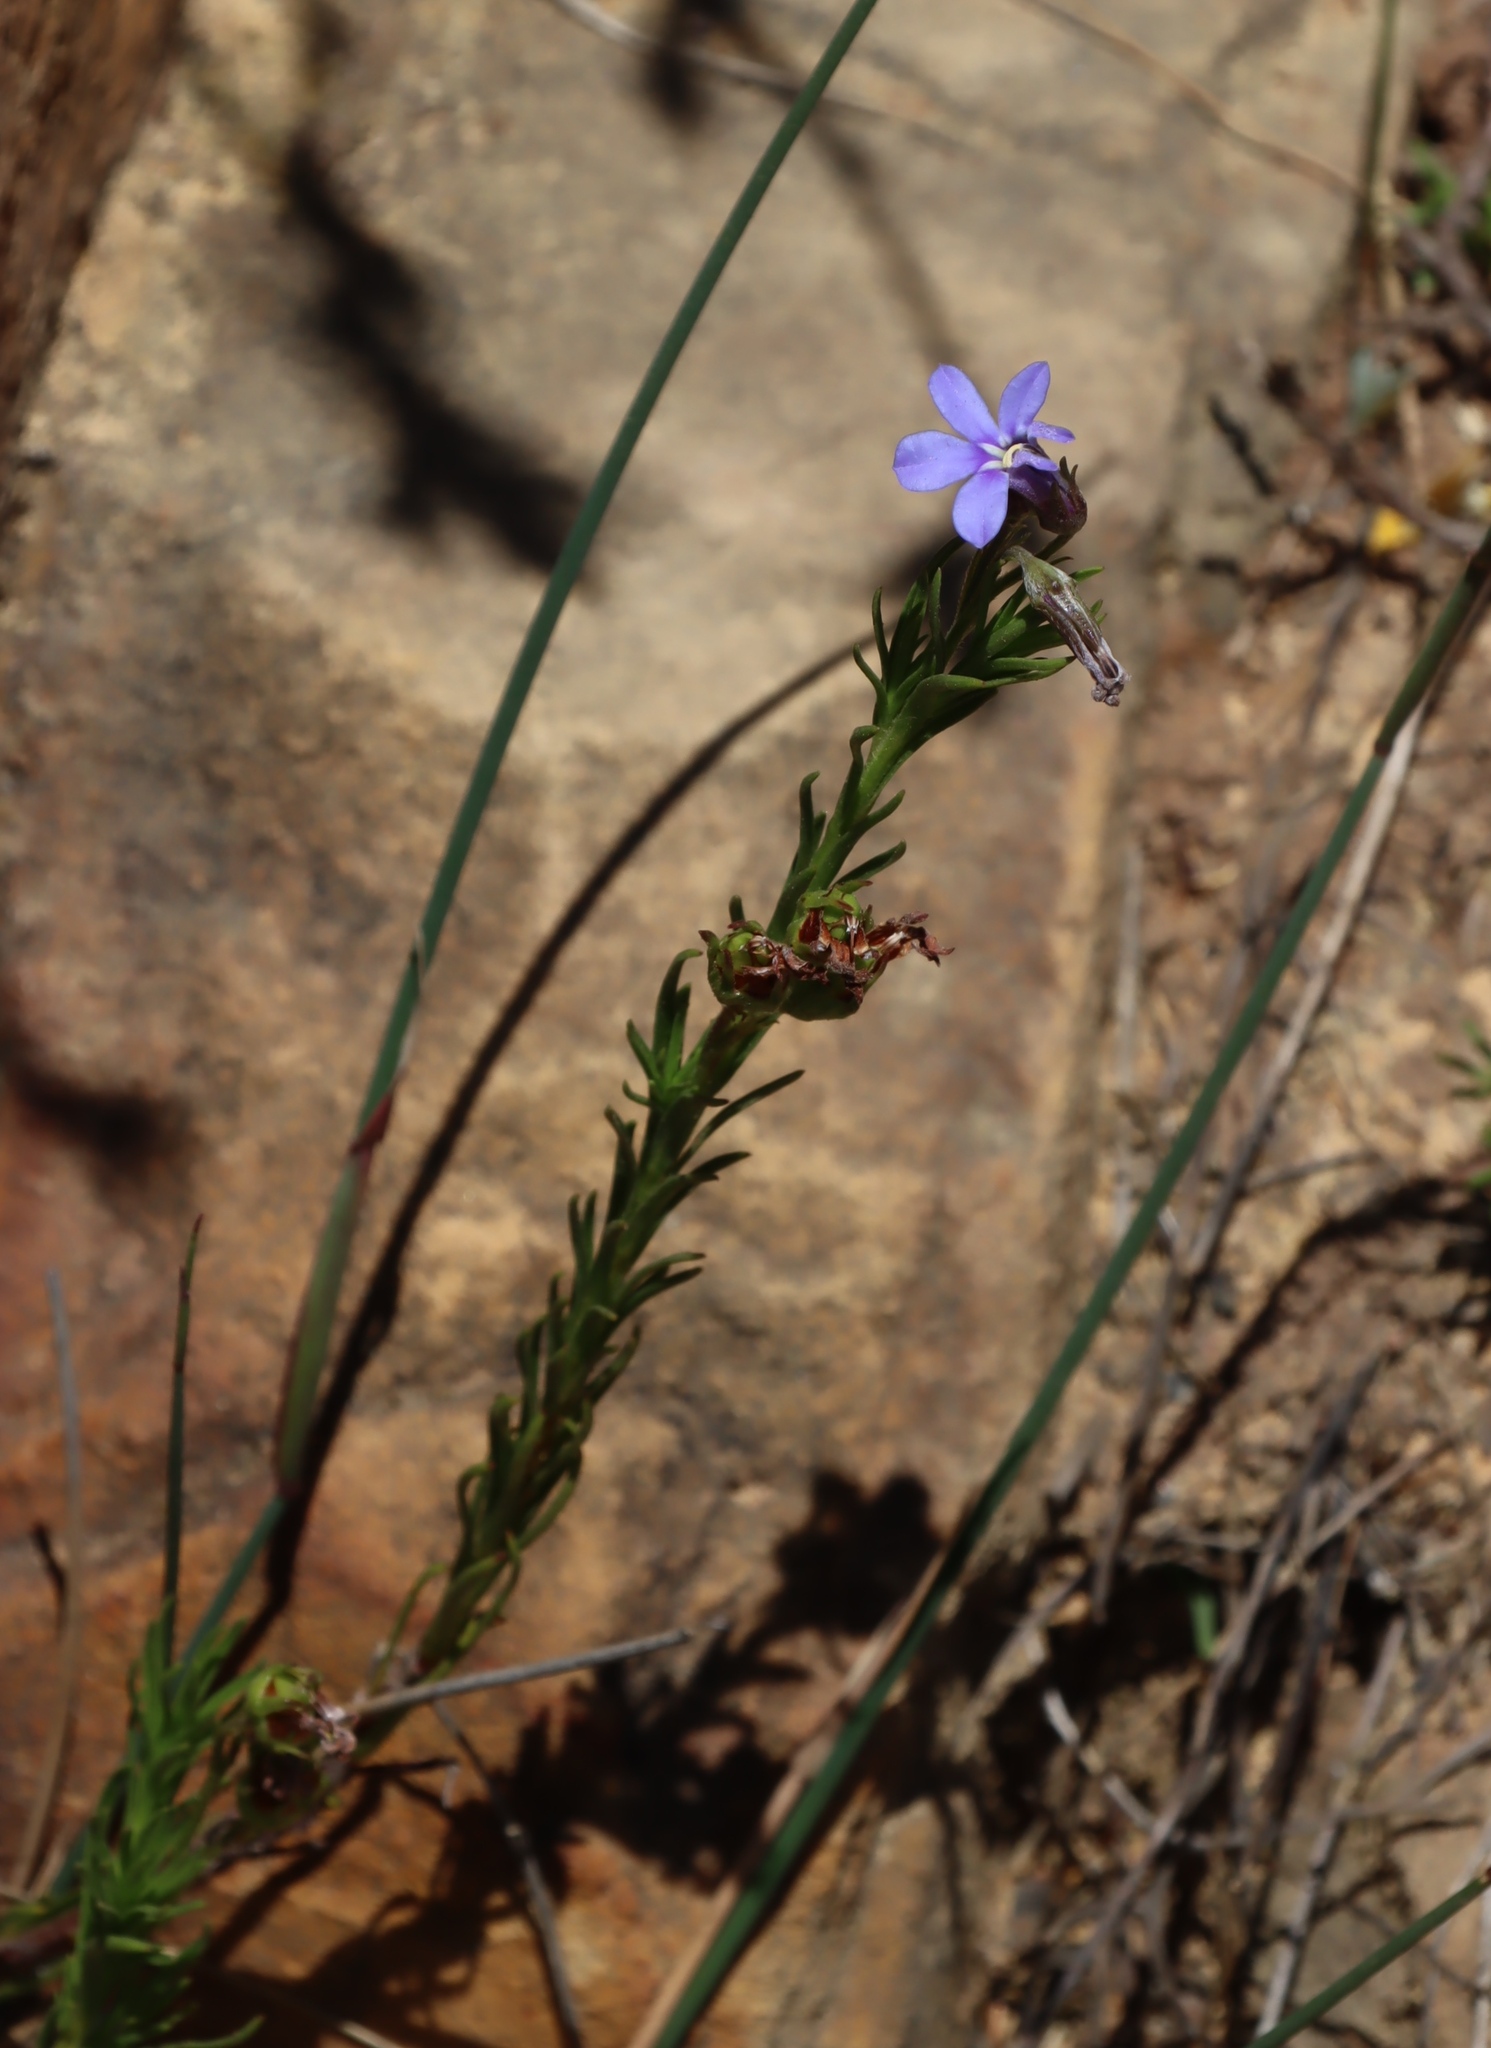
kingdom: Plantae
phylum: Tracheophyta
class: Magnoliopsida
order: Asterales
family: Campanulaceae
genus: Lobelia
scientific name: Lobelia pinifolia
